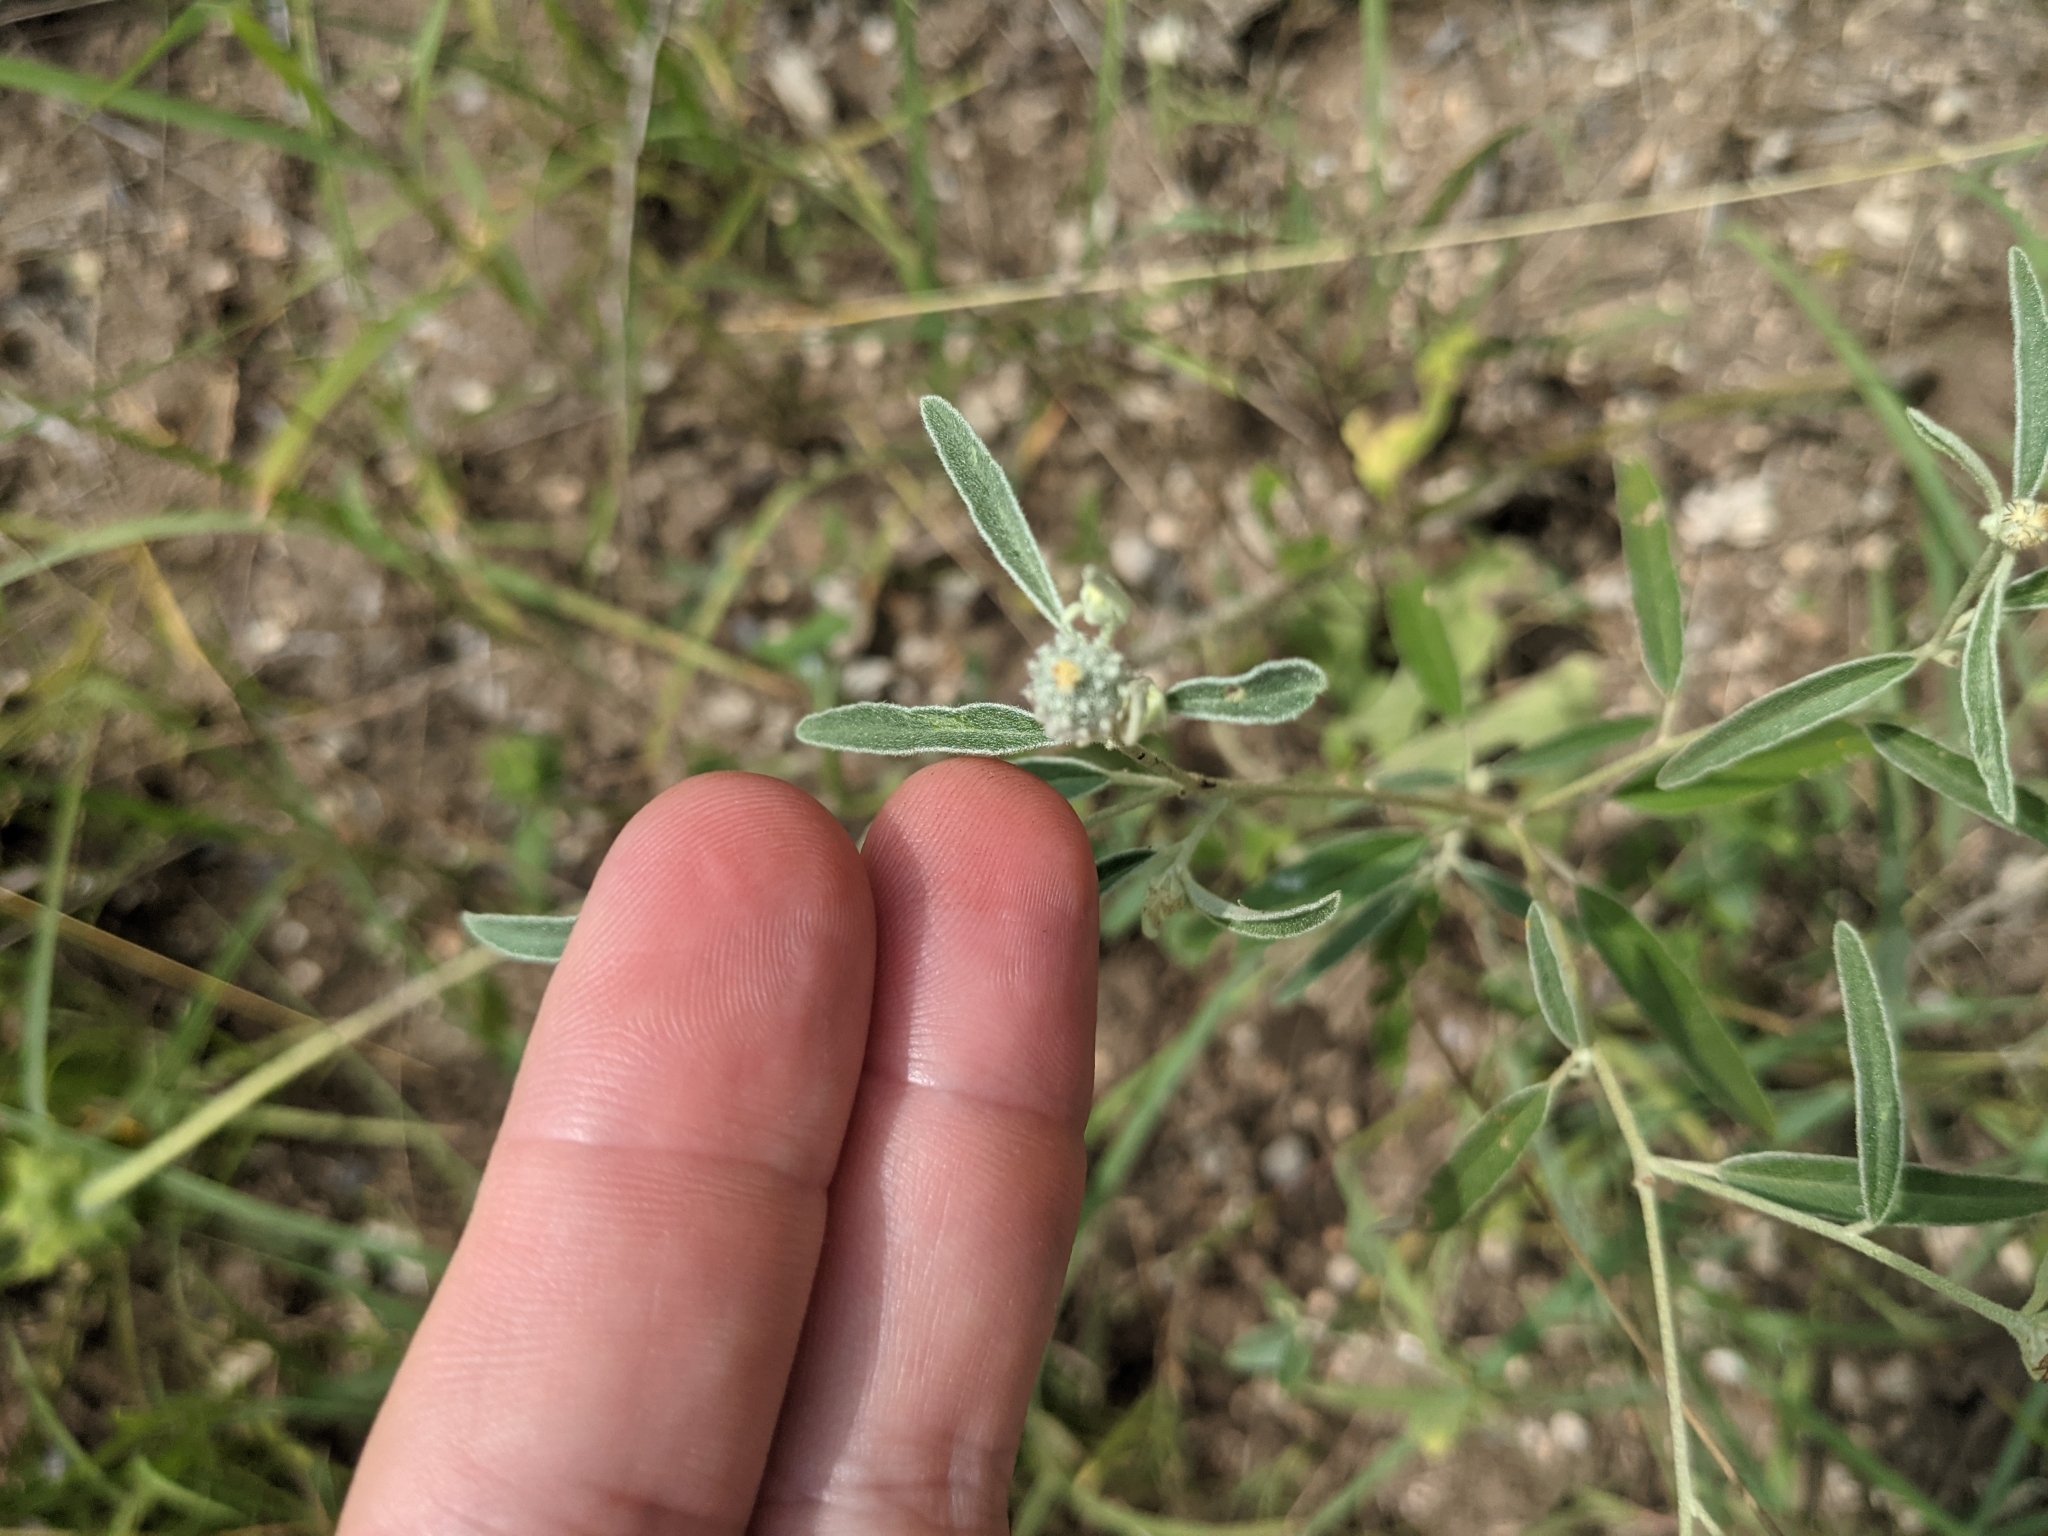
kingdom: Plantae
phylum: Tracheophyta
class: Magnoliopsida
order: Malpighiales
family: Euphorbiaceae
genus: Croton
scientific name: Croton texensis
